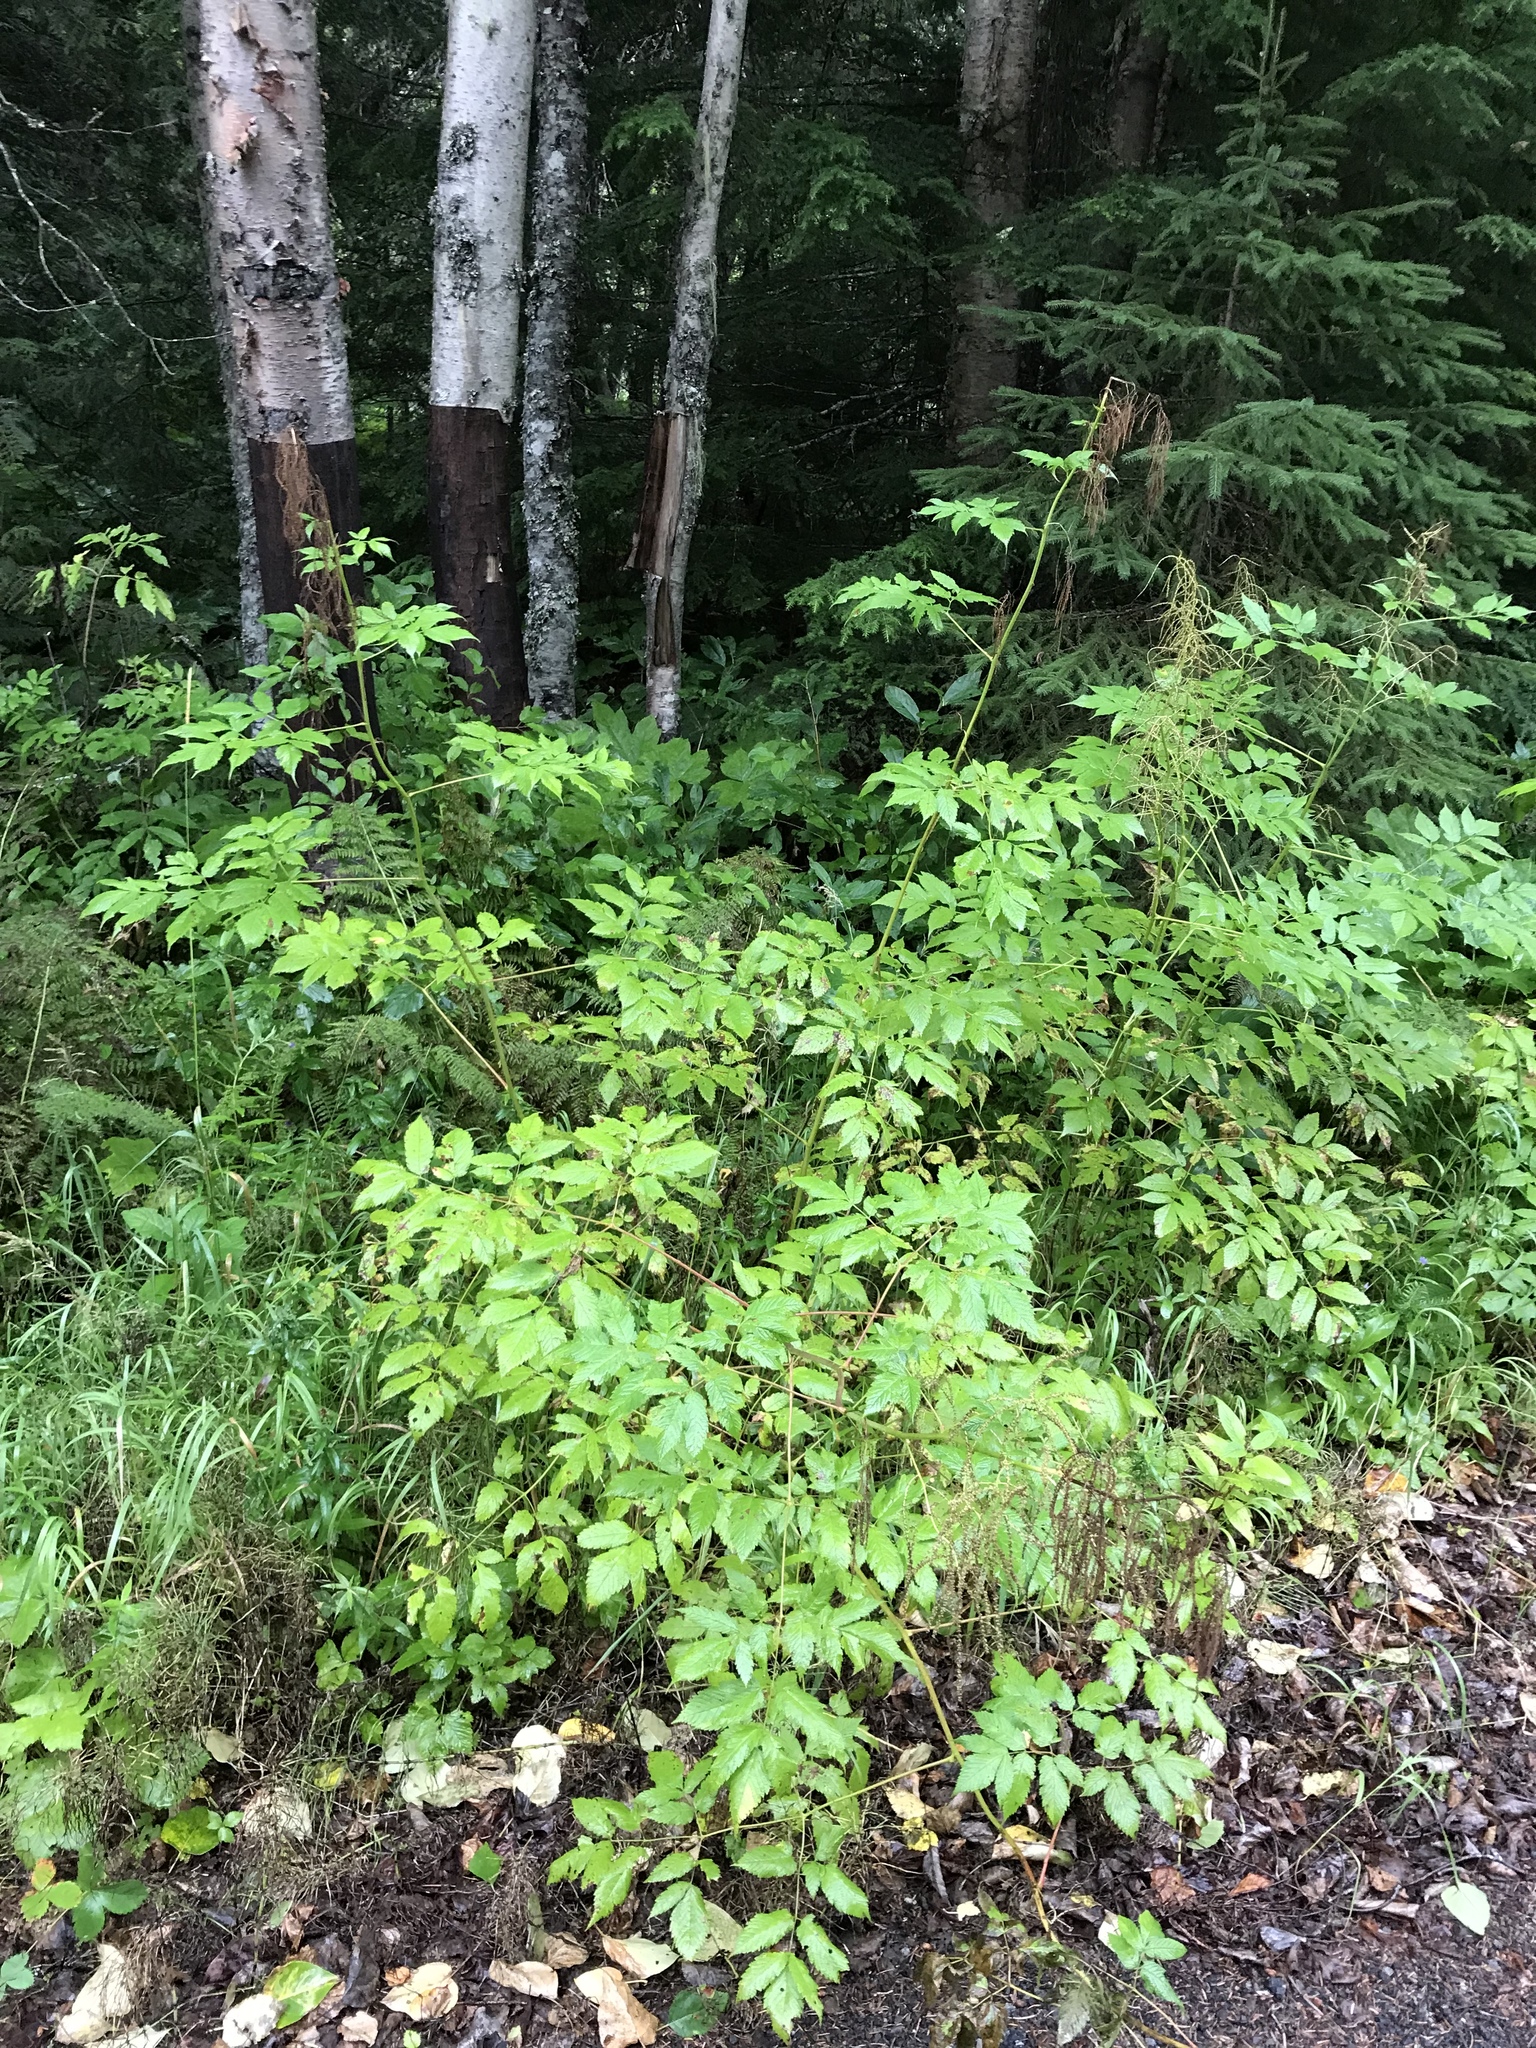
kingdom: Plantae
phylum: Tracheophyta
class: Magnoliopsida
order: Rosales
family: Rosaceae
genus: Aruncus
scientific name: Aruncus dioicus
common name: Buck's-beard
